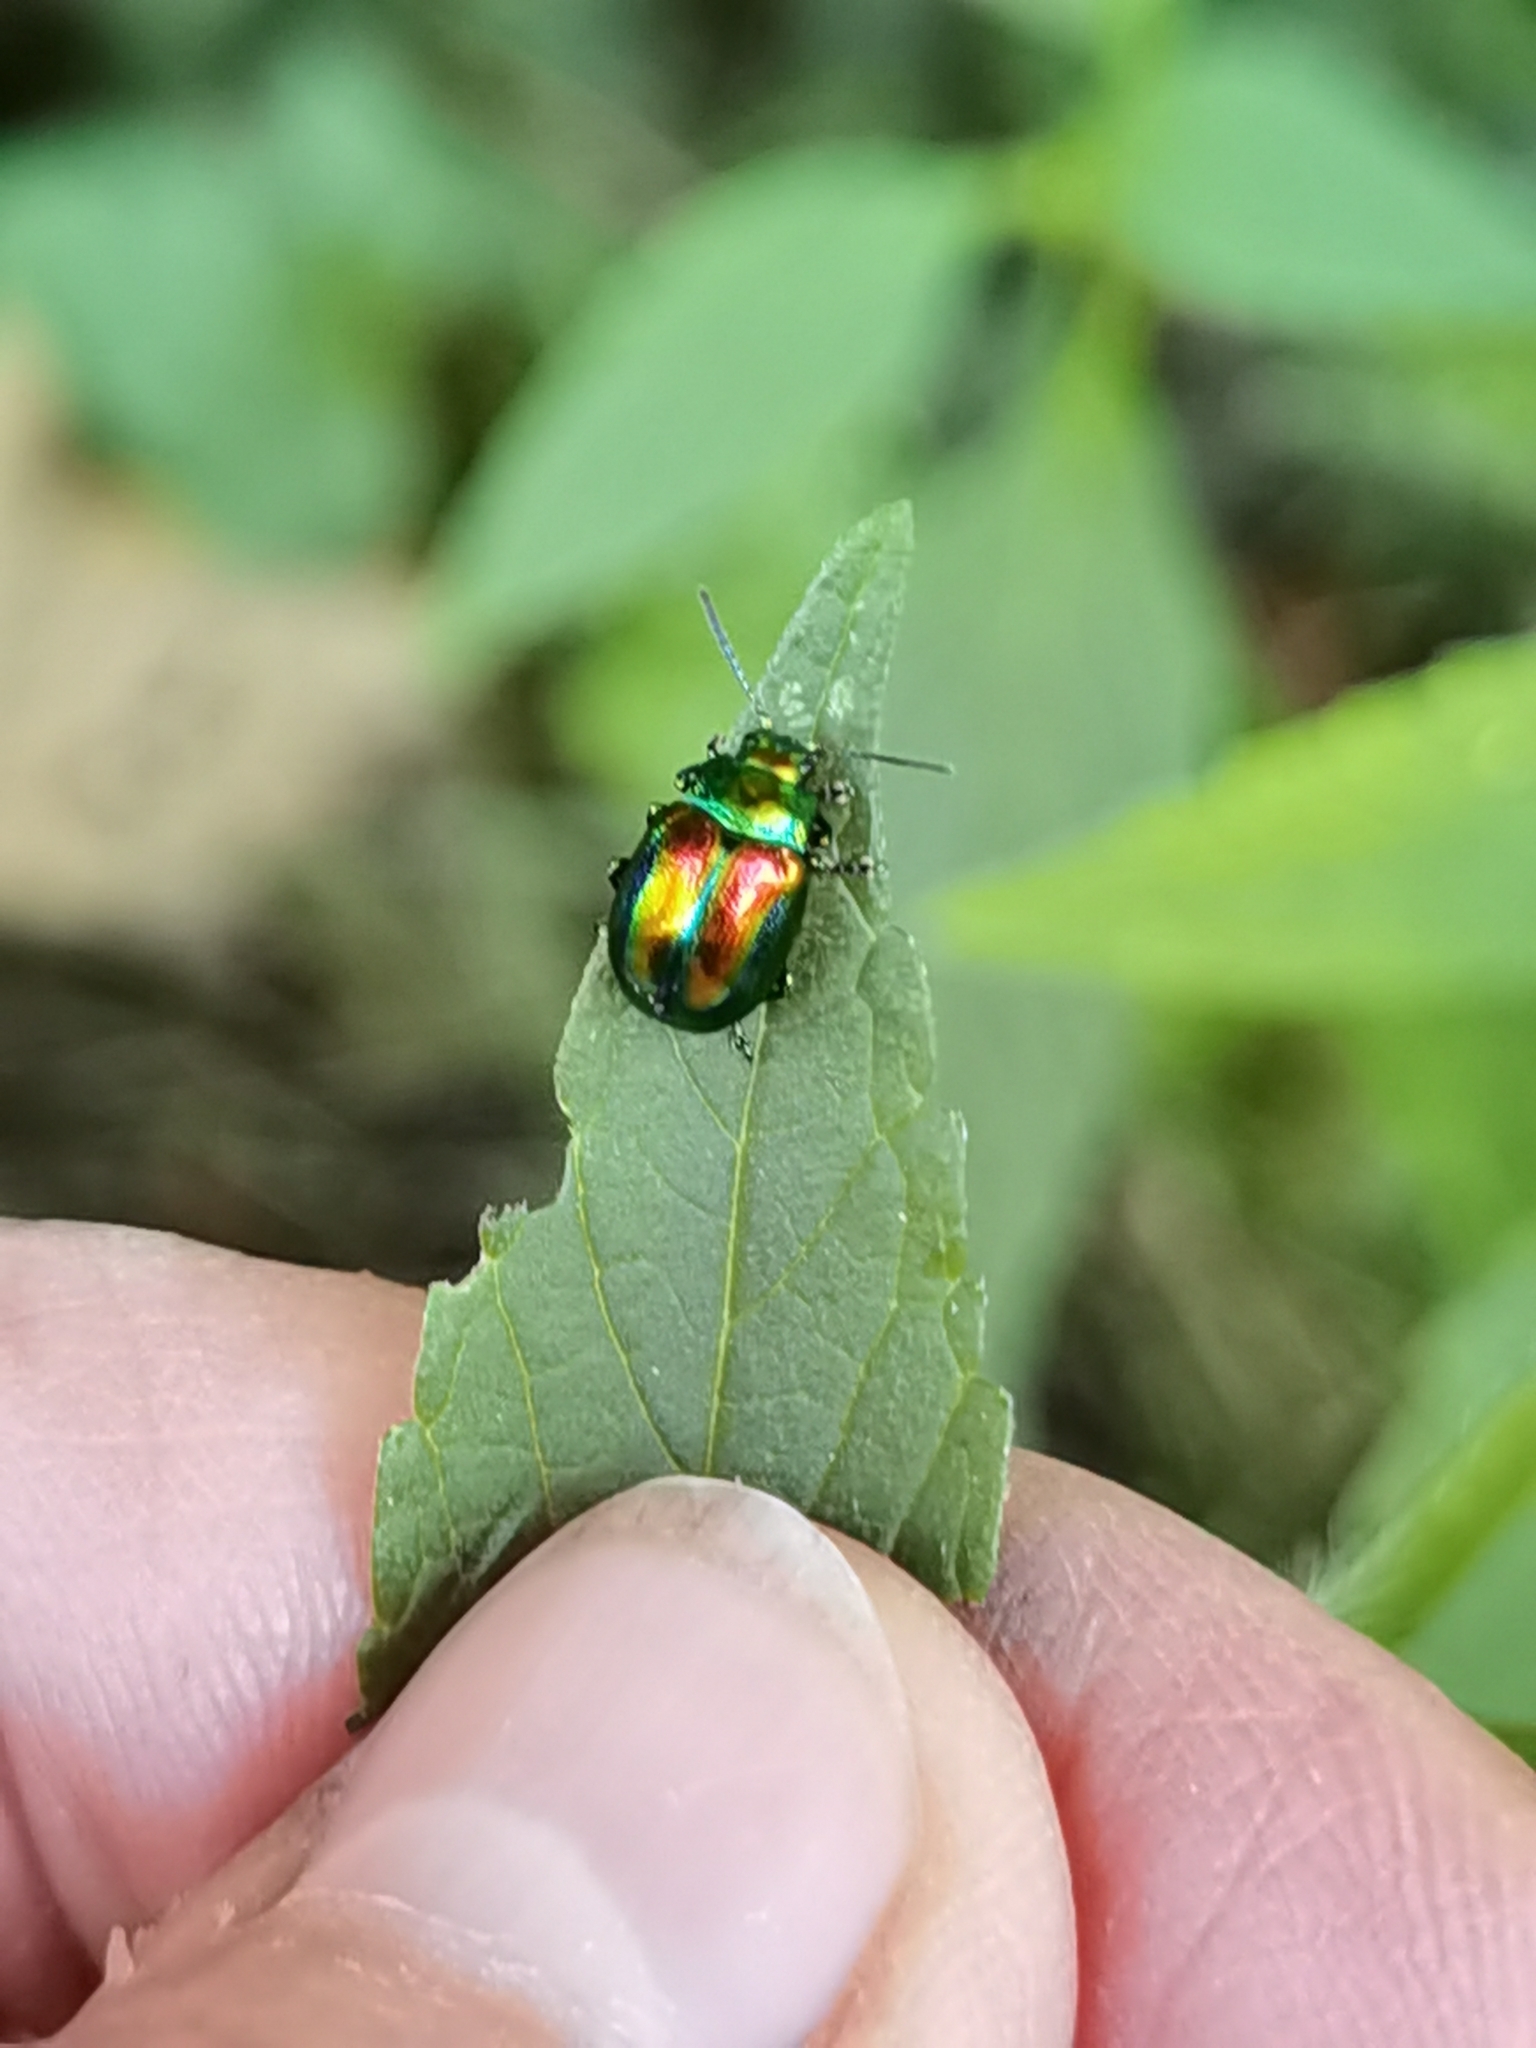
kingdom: Animalia
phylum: Arthropoda
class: Insecta
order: Coleoptera
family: Chrysomelidae
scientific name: Chrysomelidae
